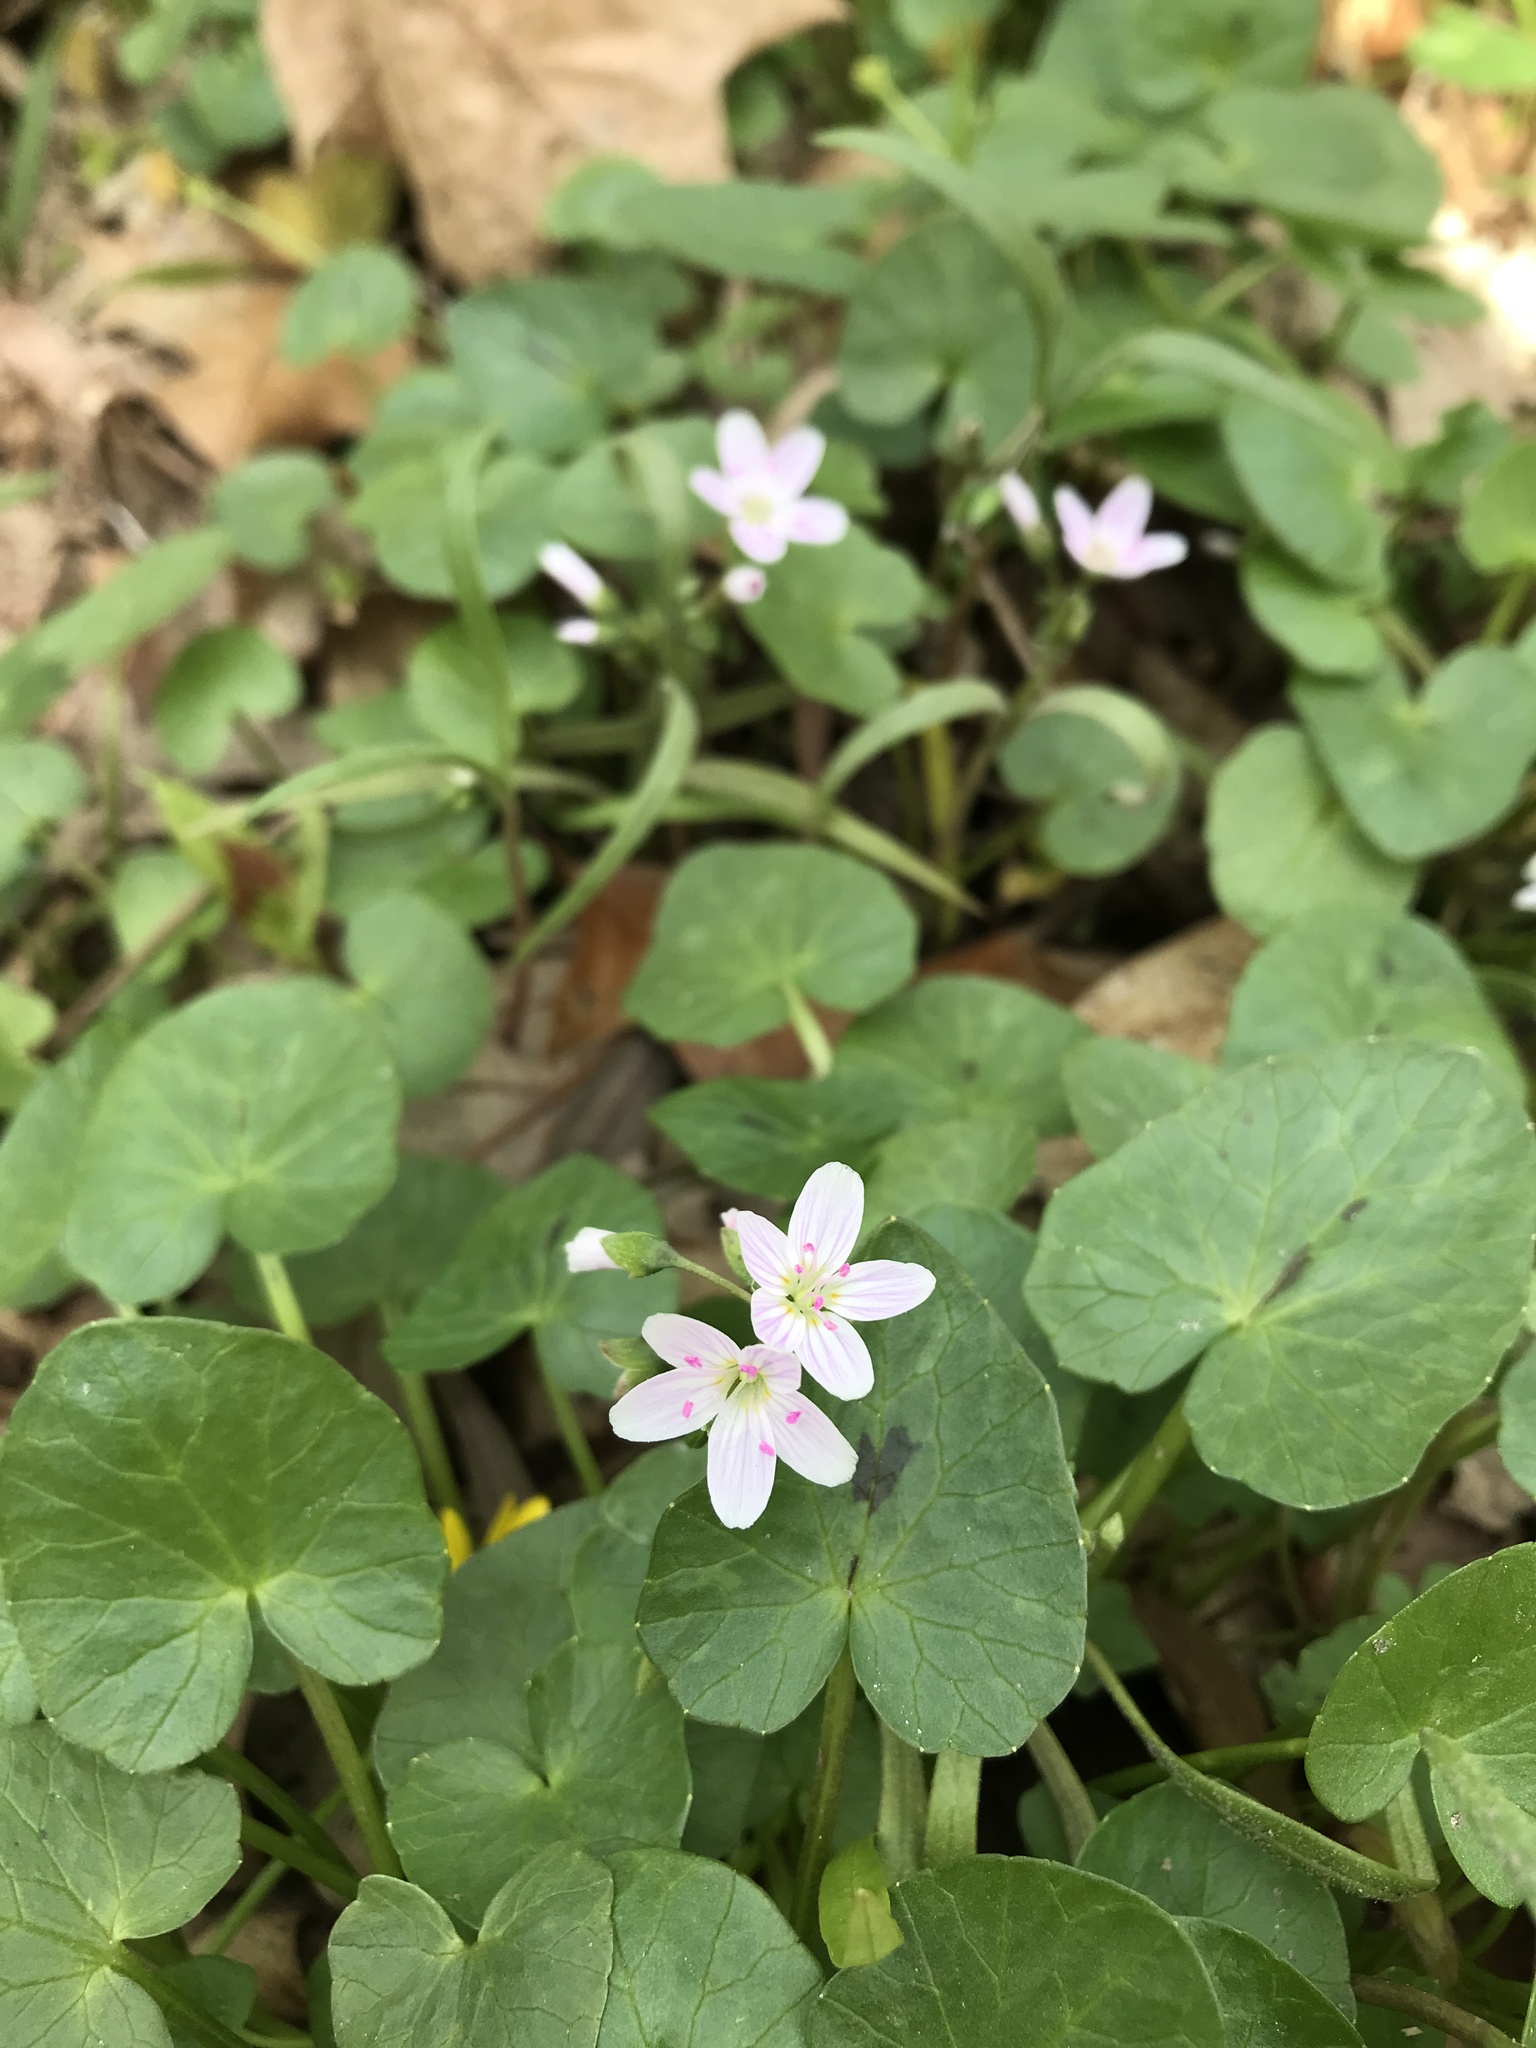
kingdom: Plantae
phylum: Tracheophyta
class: Magnoliopsida
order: Caryophyllales
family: Montiaceae
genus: Claytonia
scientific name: Claytonia virginica
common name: Virginia springbeauty
